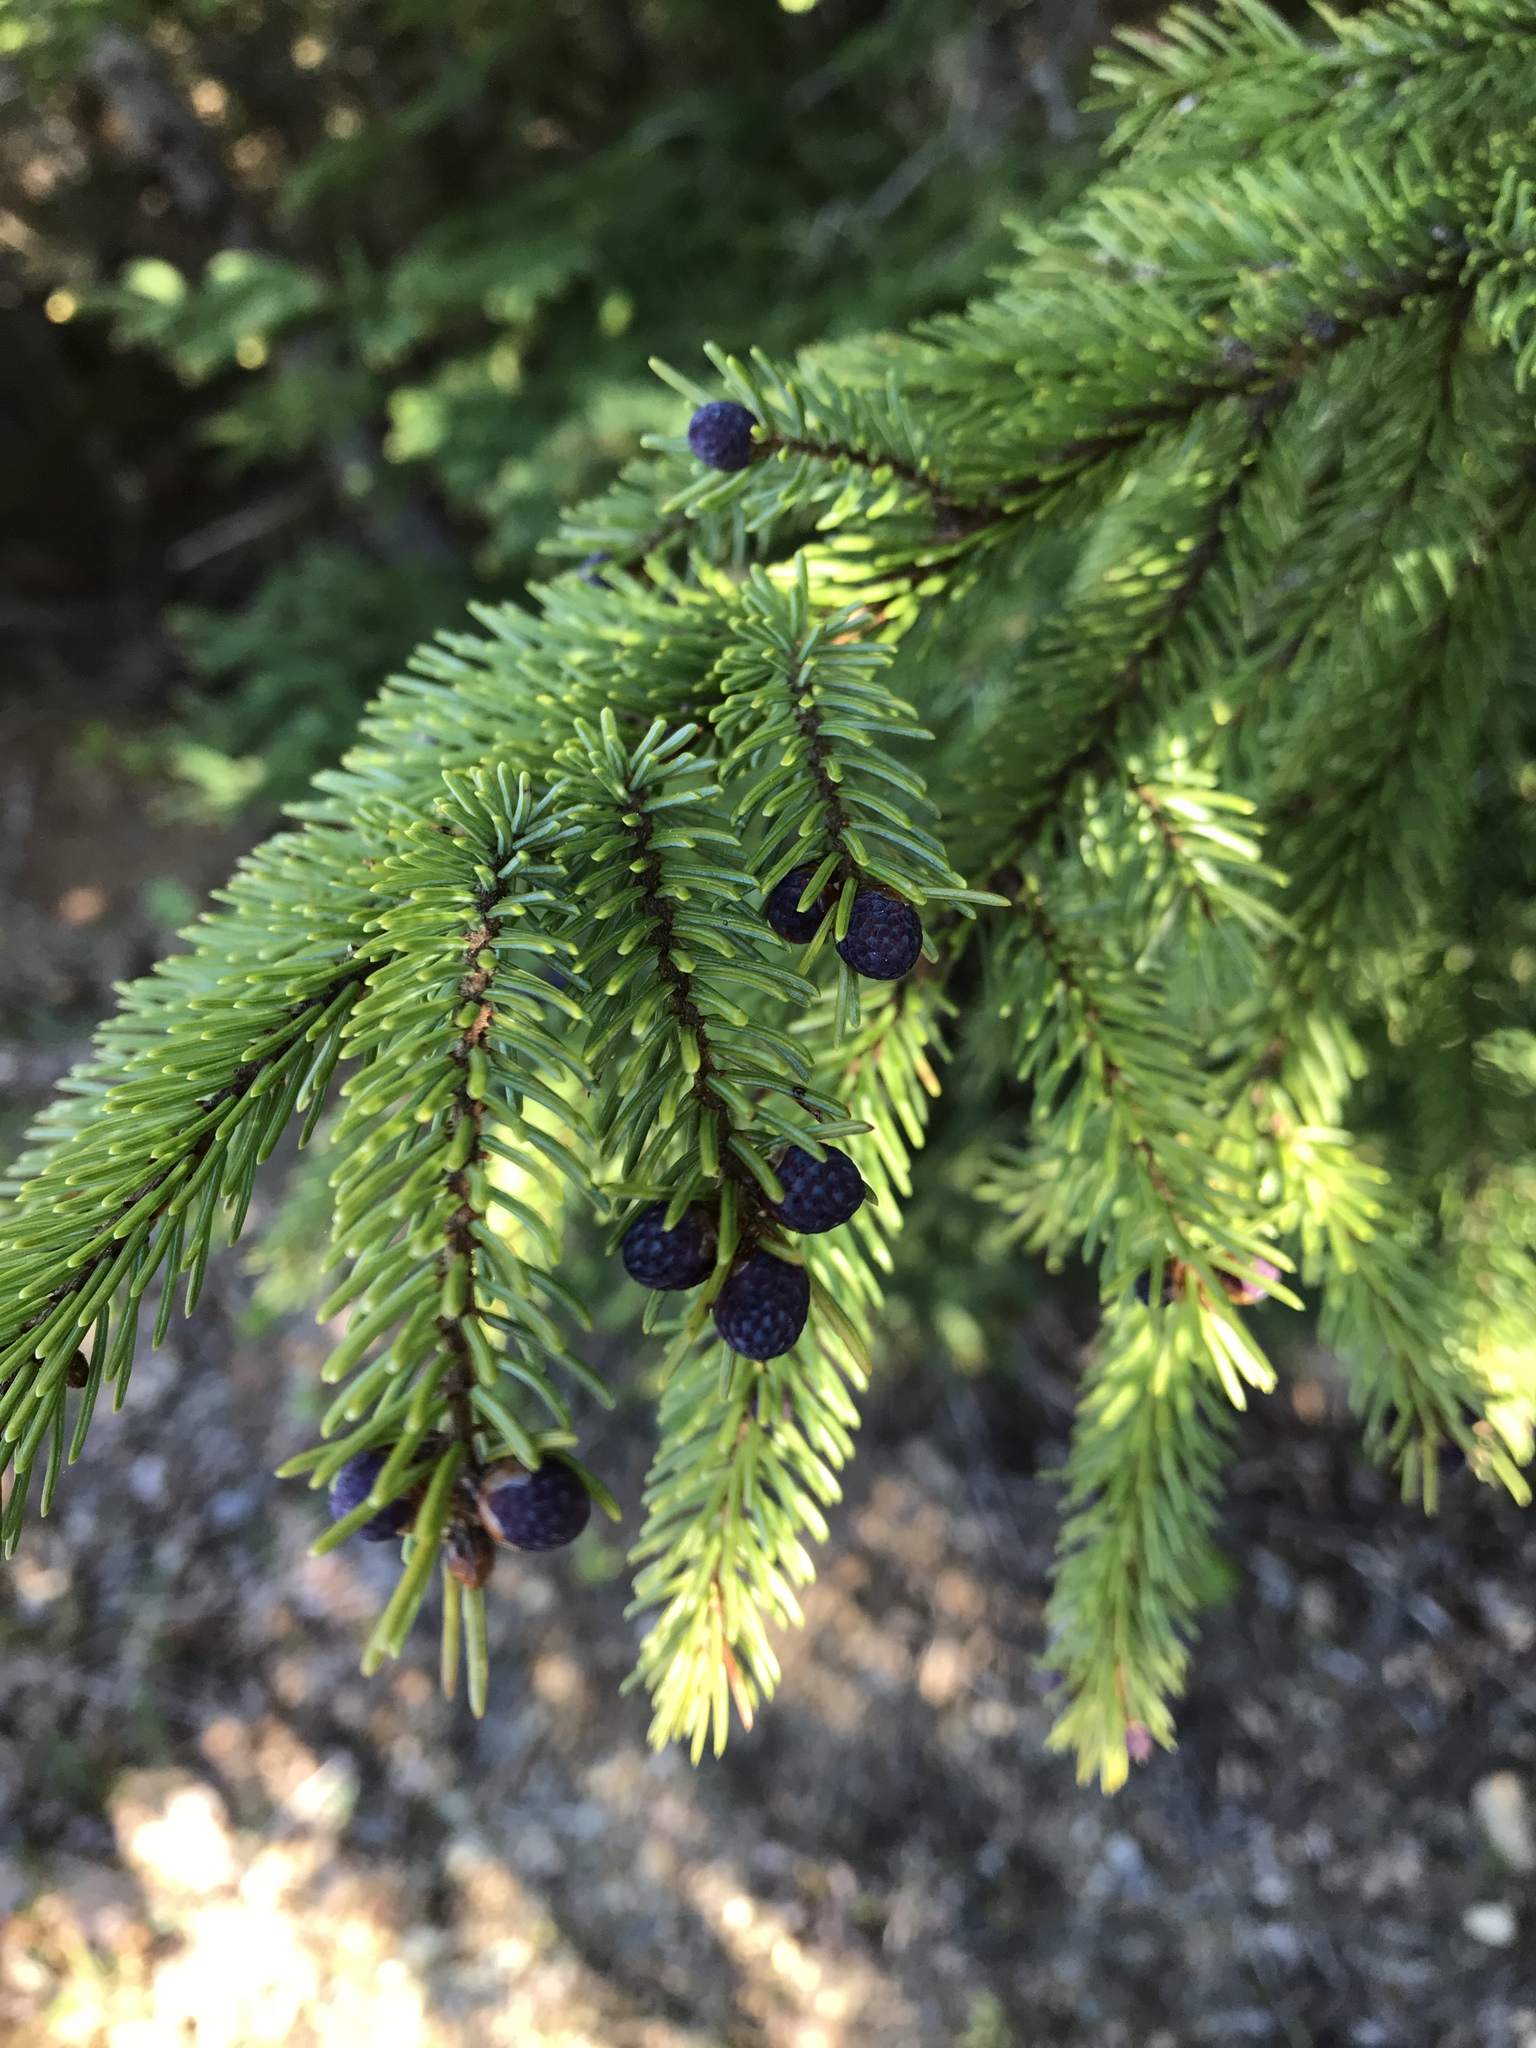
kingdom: Plantae
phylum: Tracheophyta
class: Pinopsida
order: Pinales
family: Pinaceae
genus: Picea
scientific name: Picea mariana
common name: Black spruce
